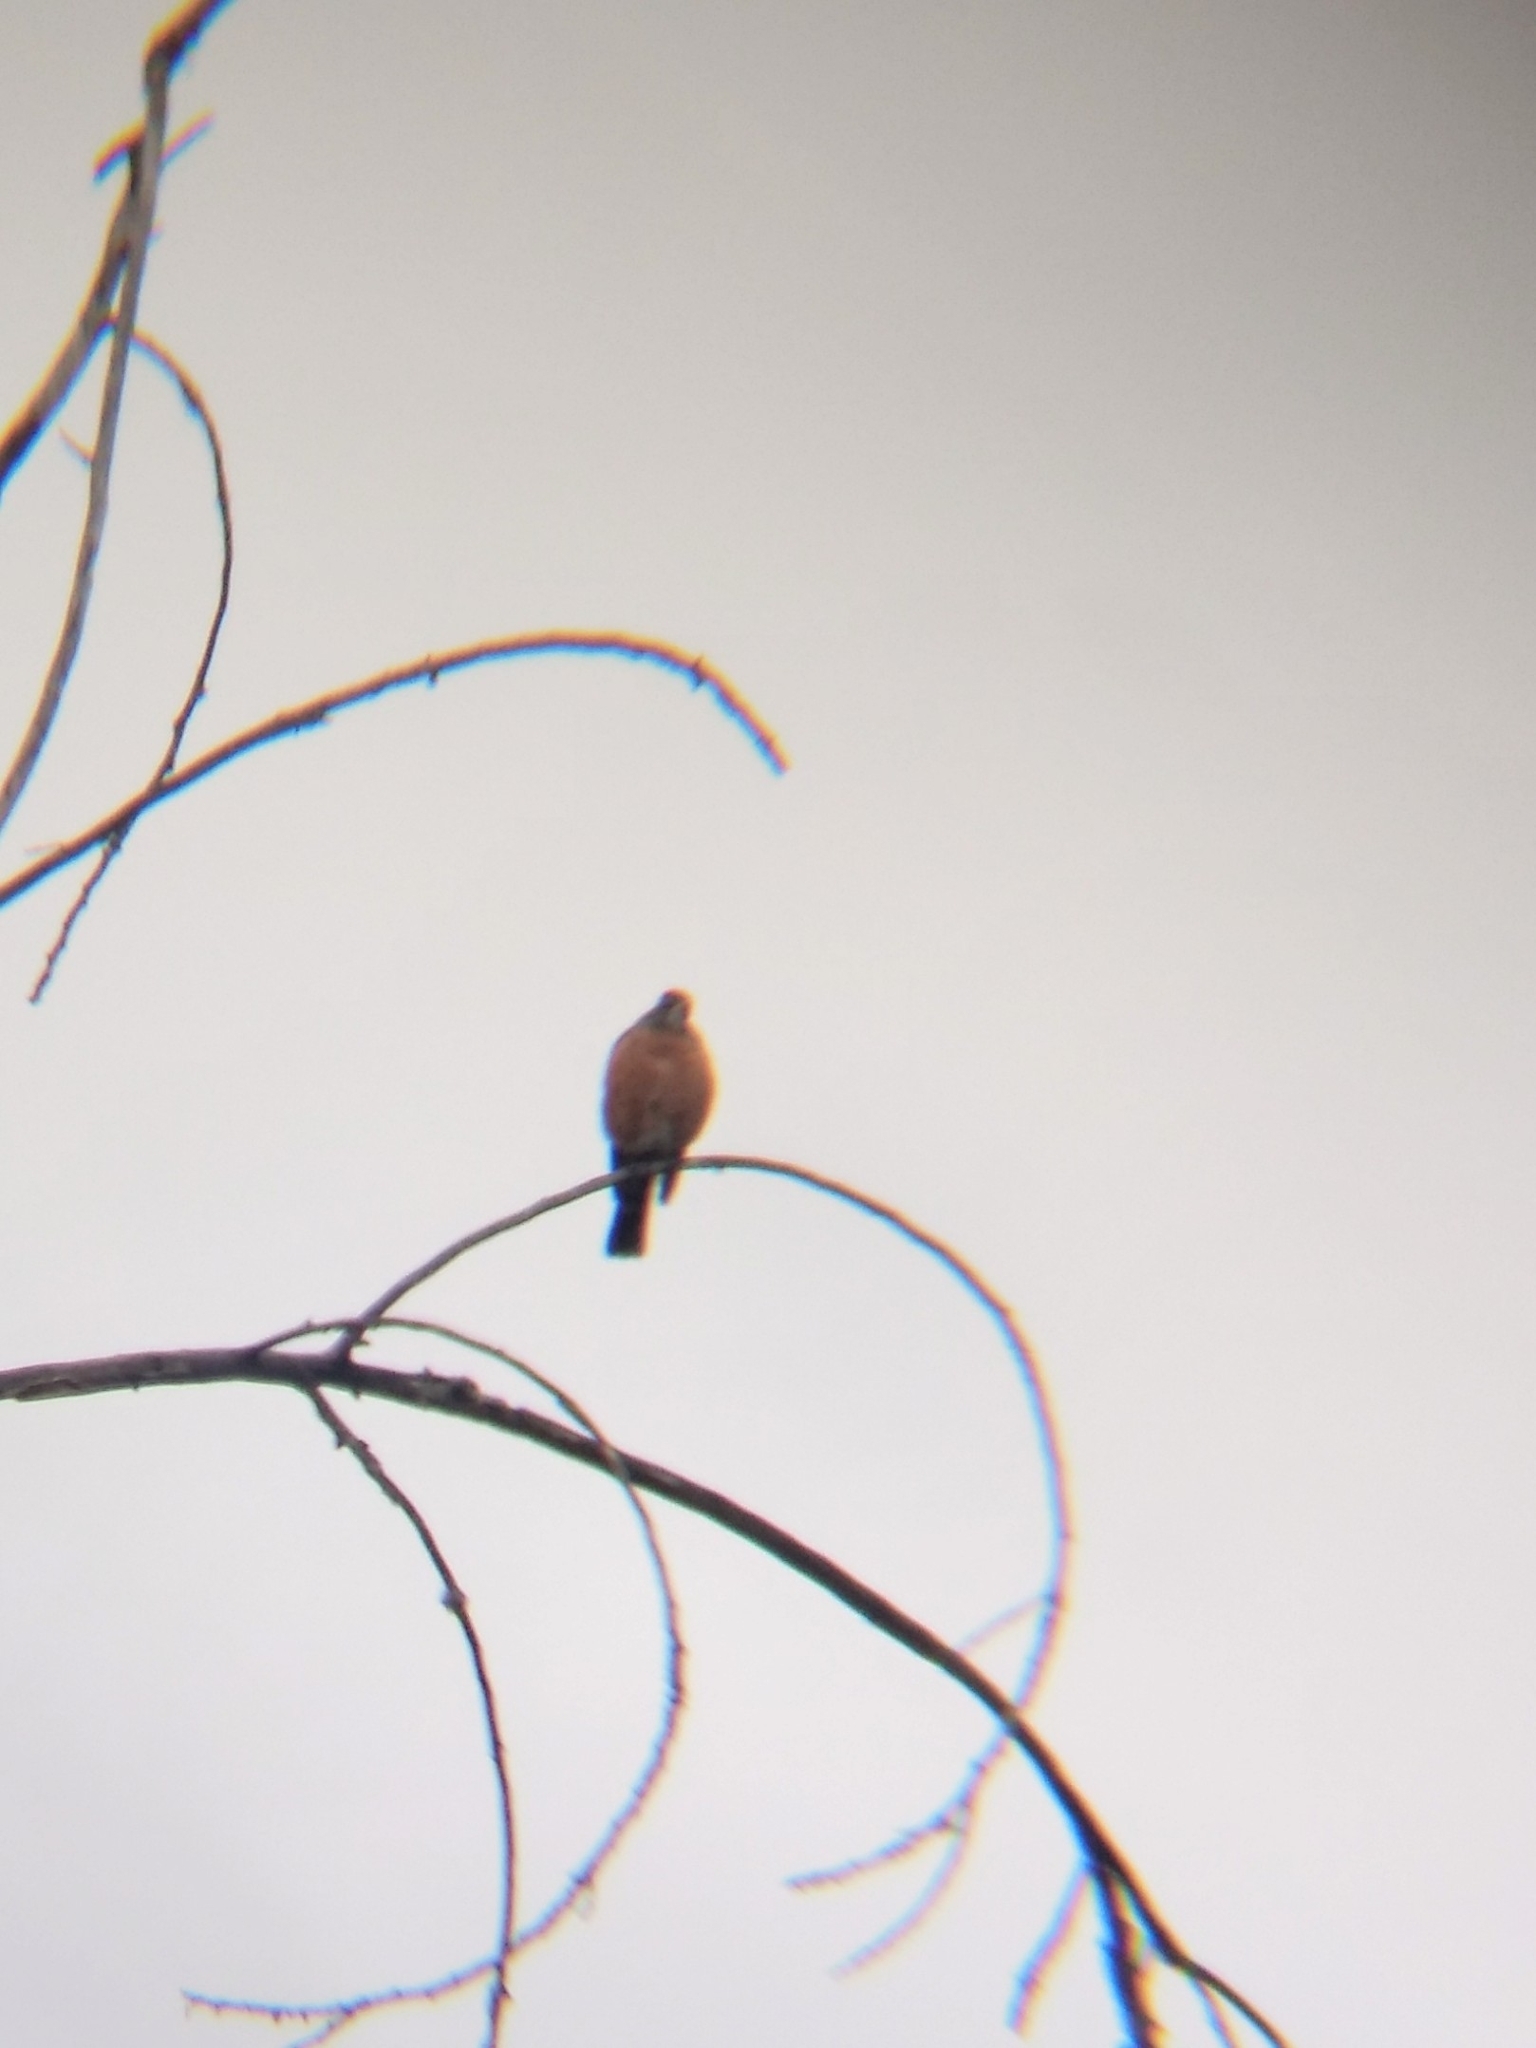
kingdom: Animalia
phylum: Chordata
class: Aves
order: Passeriformes
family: Turdidae
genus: Turdus
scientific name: Turdus migratorius
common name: American robin
